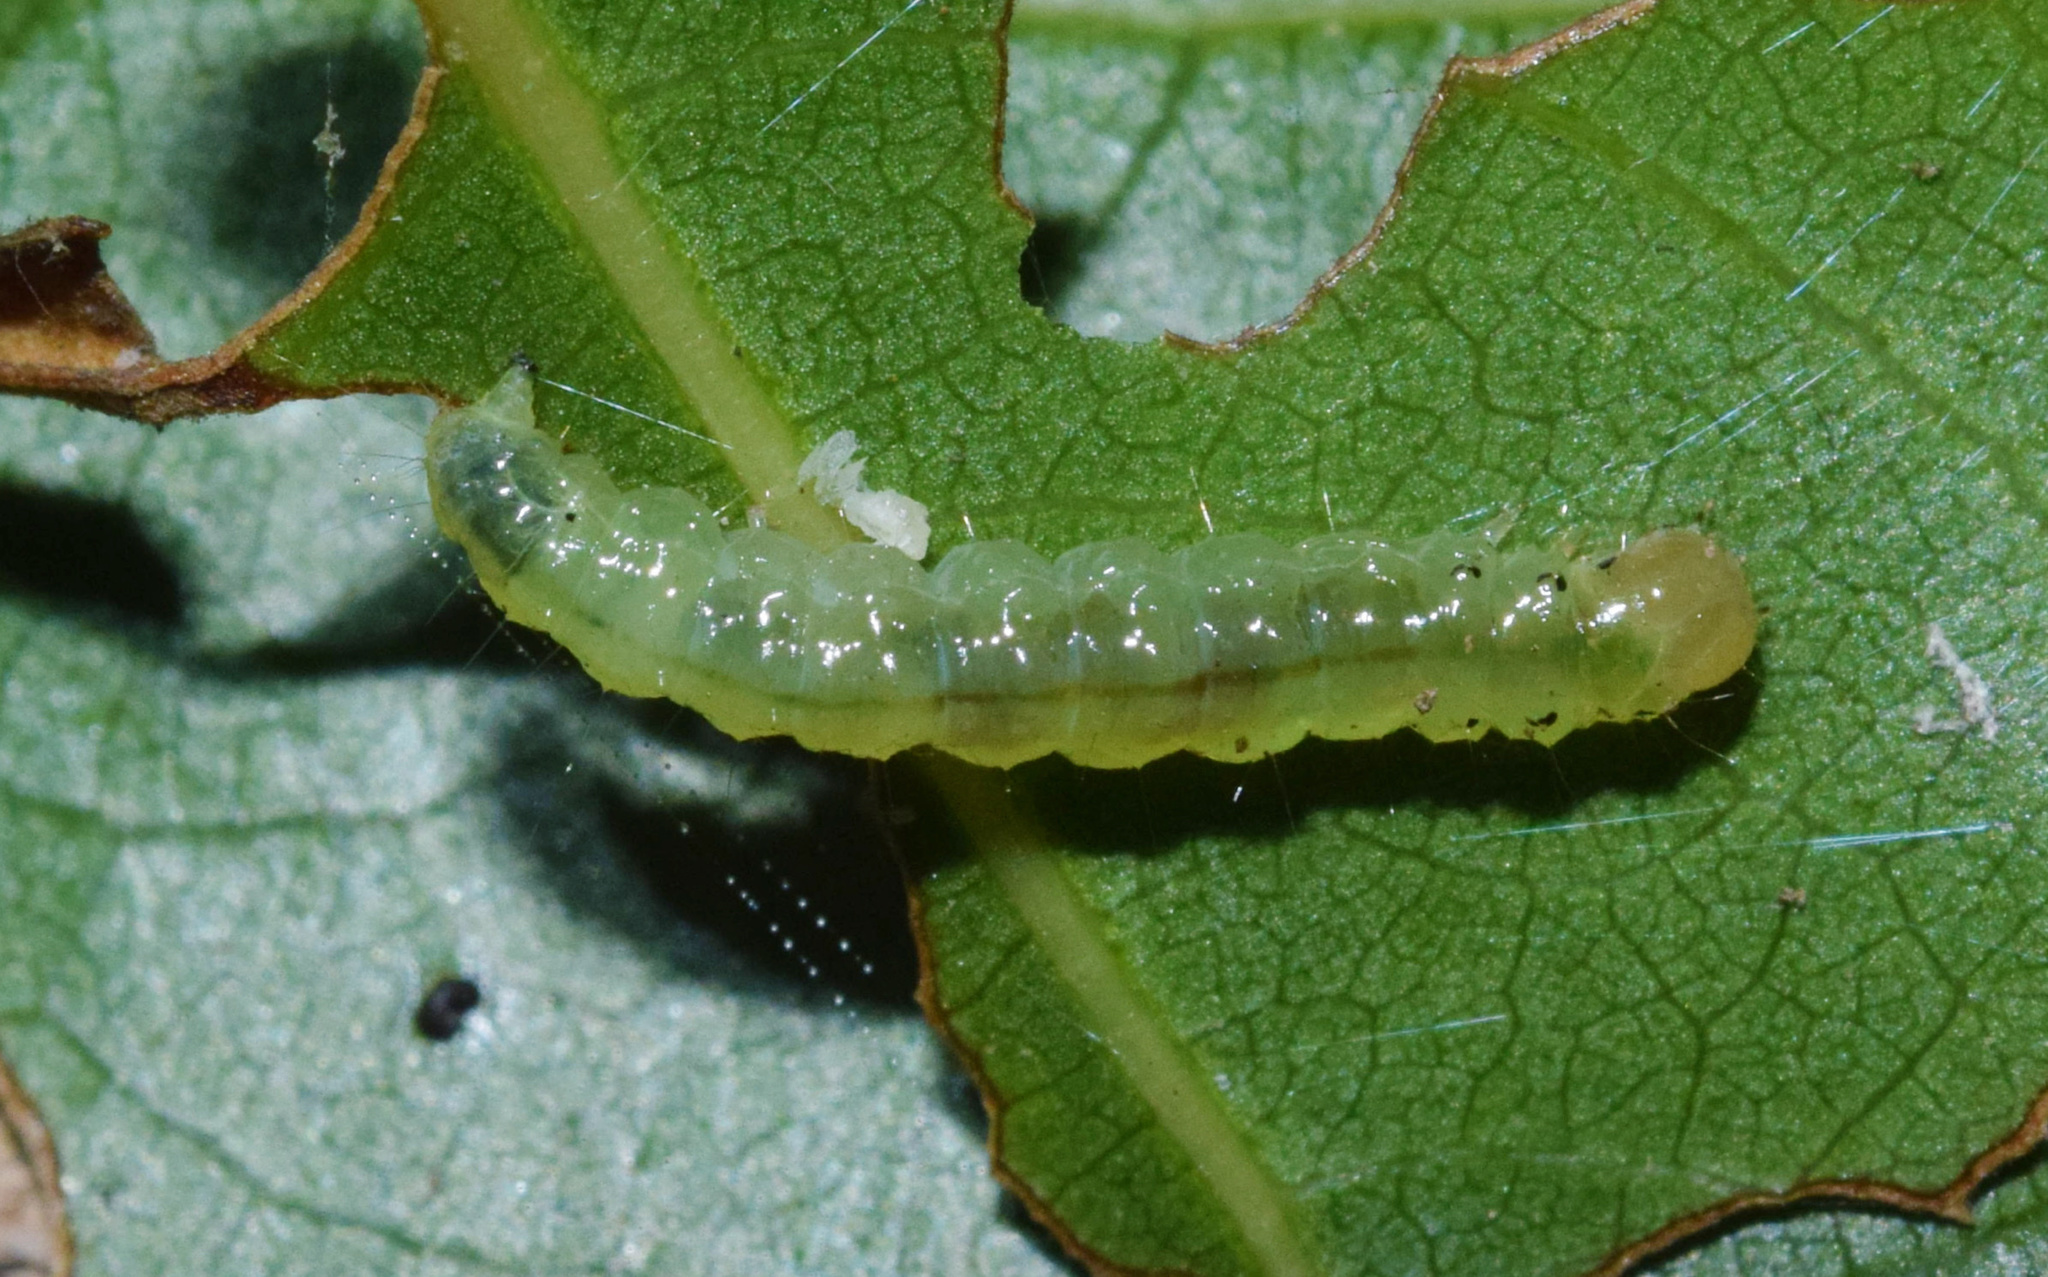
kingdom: Animalia
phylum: Arthropoda
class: Insecta
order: Lepidoptera
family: Crambidae
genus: Synclera
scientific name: Synclera traducalis
